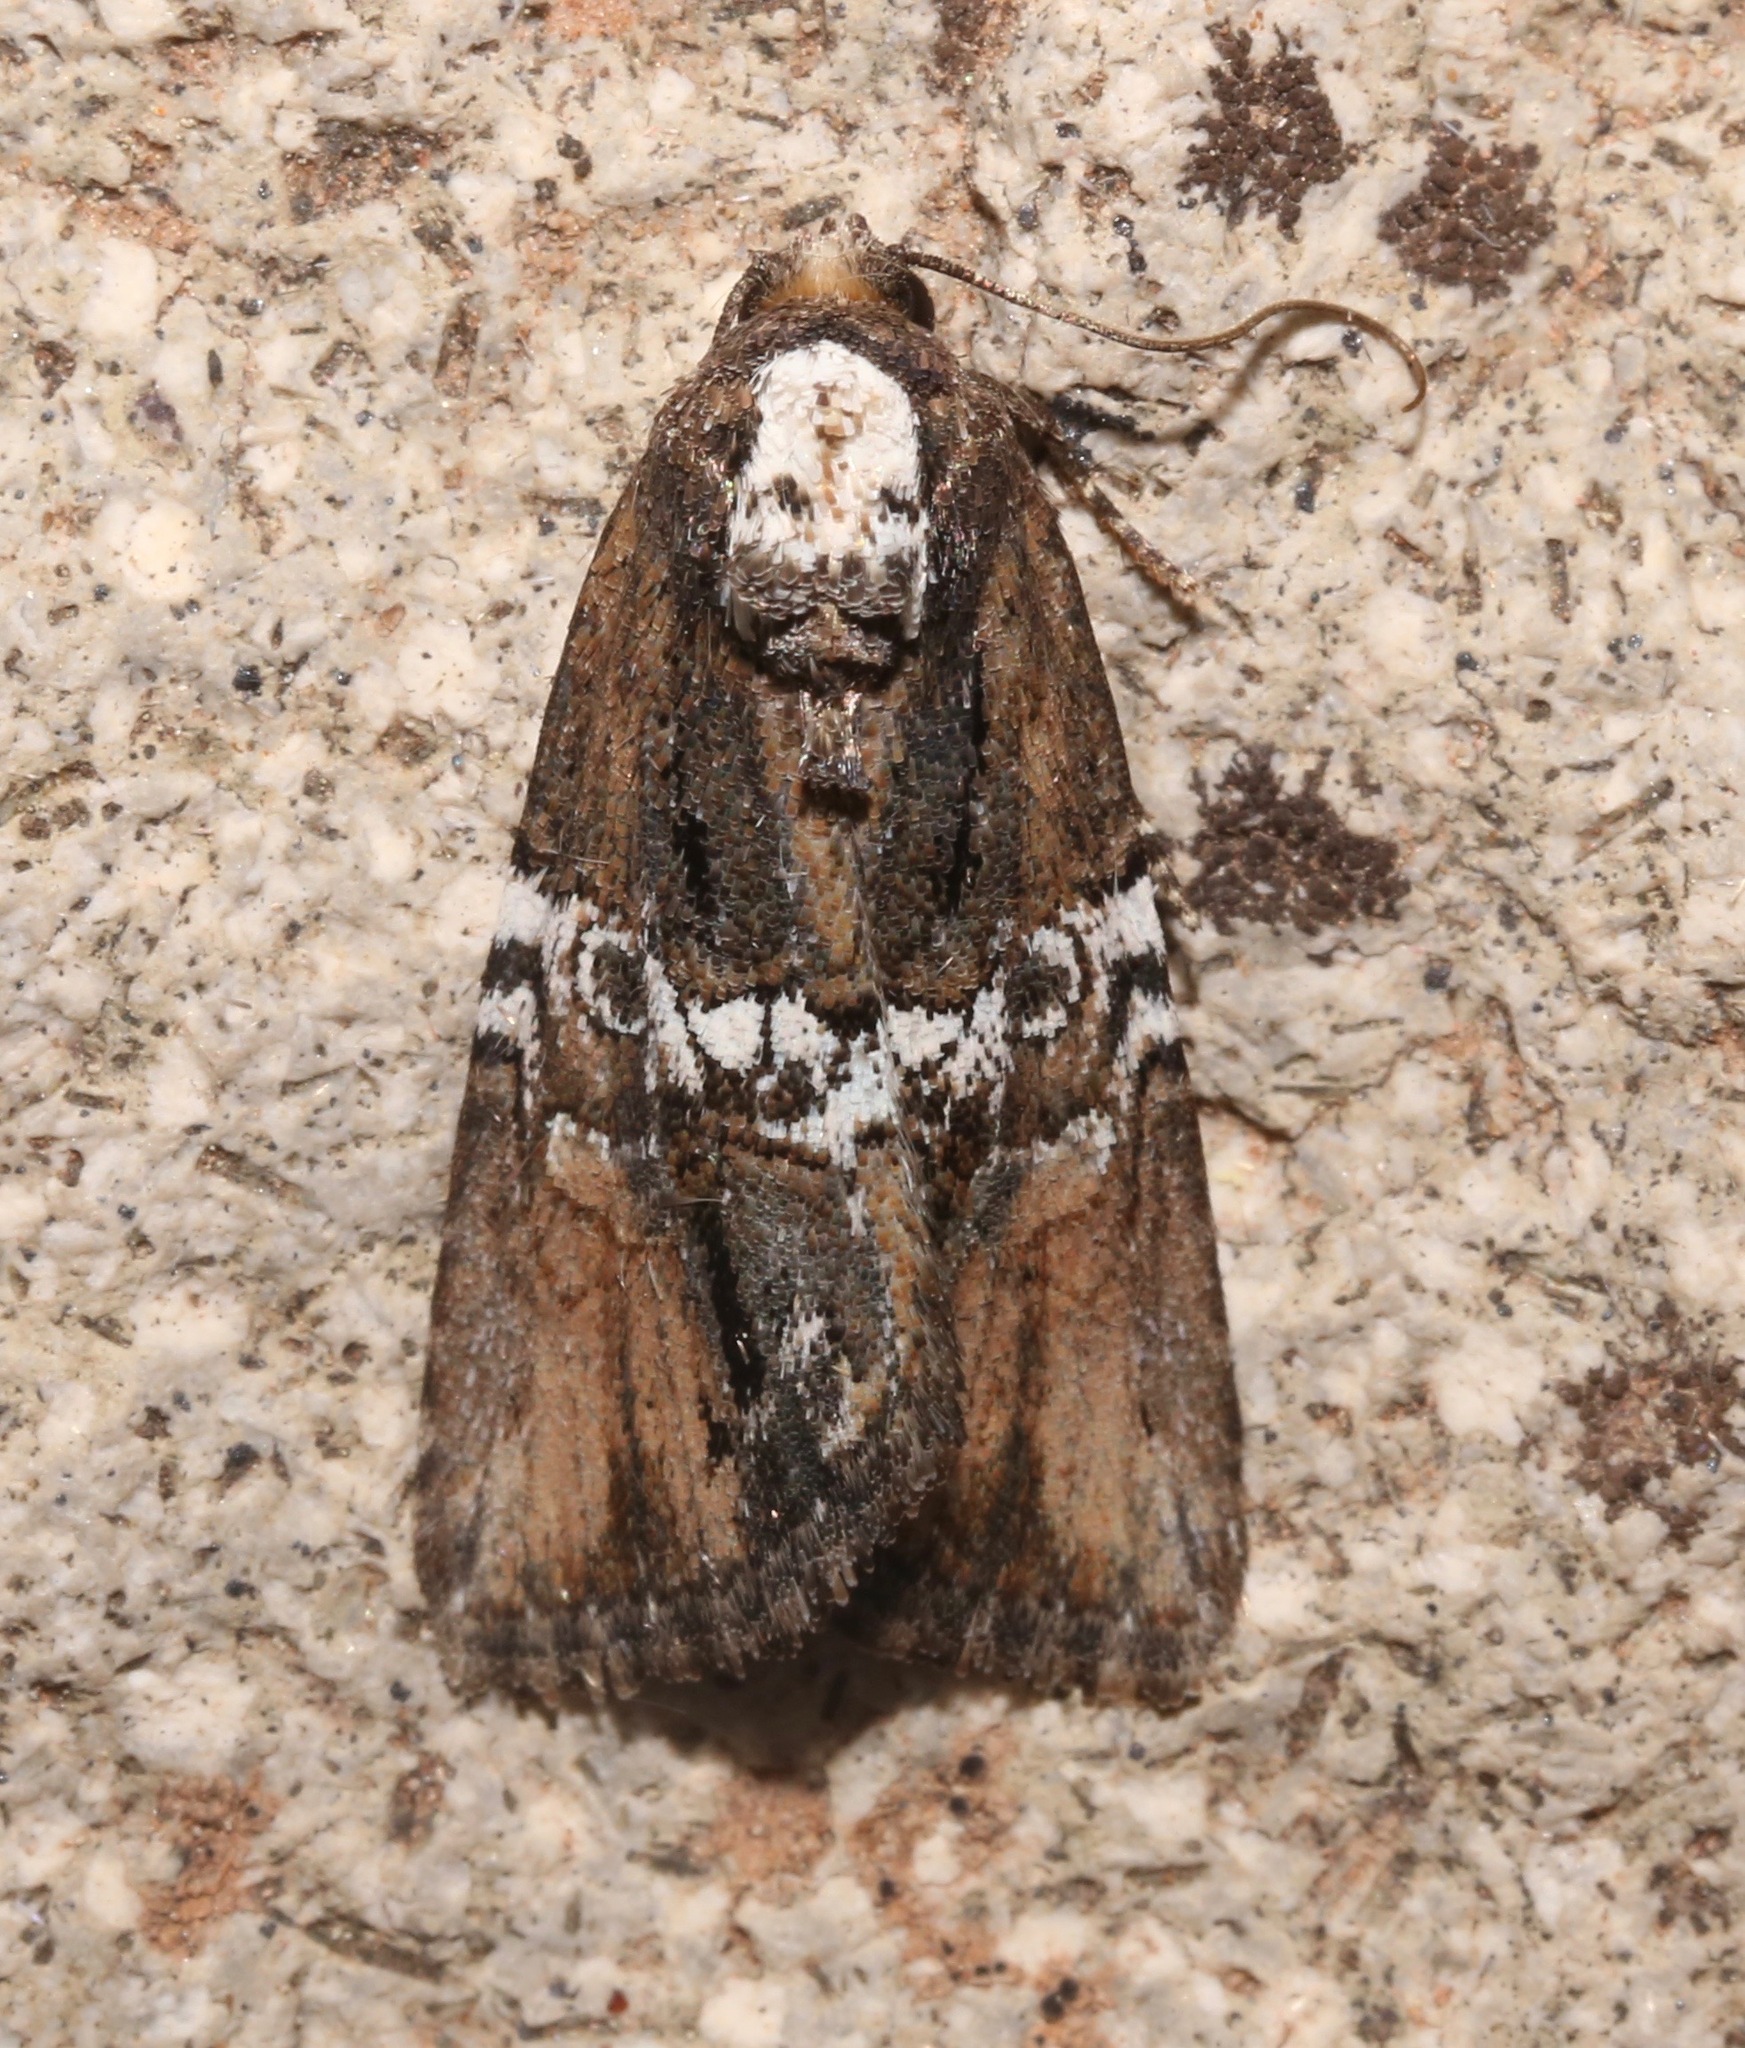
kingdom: Animalia
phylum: Arthropoda
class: Insecta
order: Lepidoptera
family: Noctuidae
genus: Bryolymnia
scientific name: Bryolymnia semifascia
